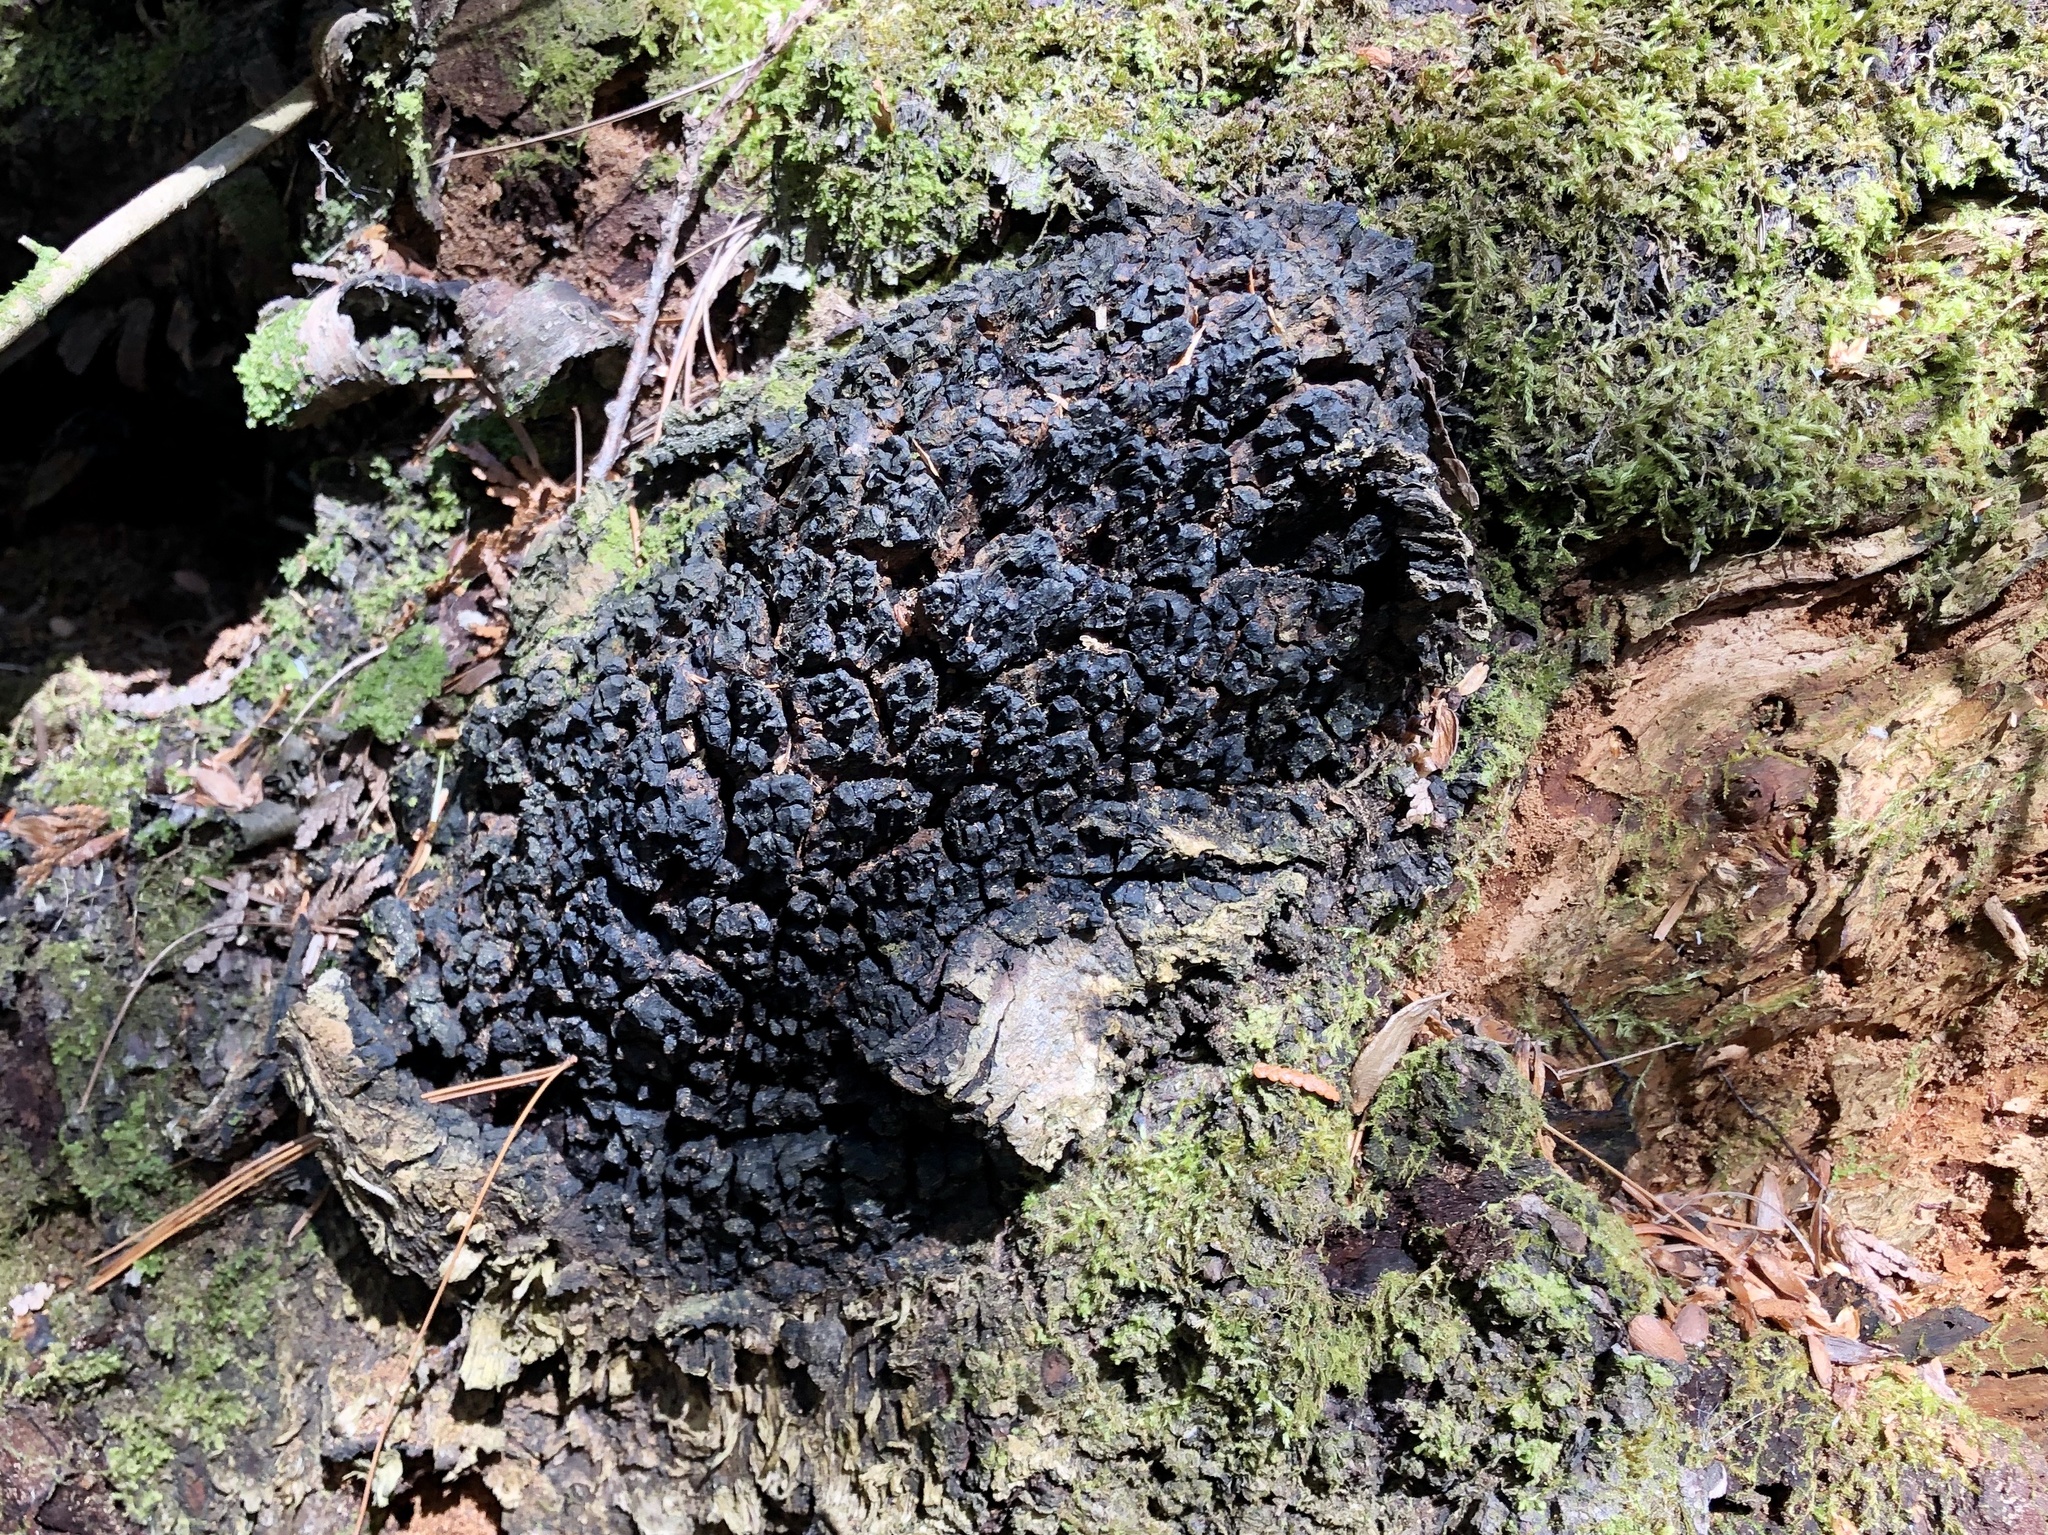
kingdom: Fungi
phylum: Basidiomycota
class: Agaricomycetes
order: Hymenochaetales
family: Hymenochaetaceae
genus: Inonotus
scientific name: Inonotus obliquus
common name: Chaga
